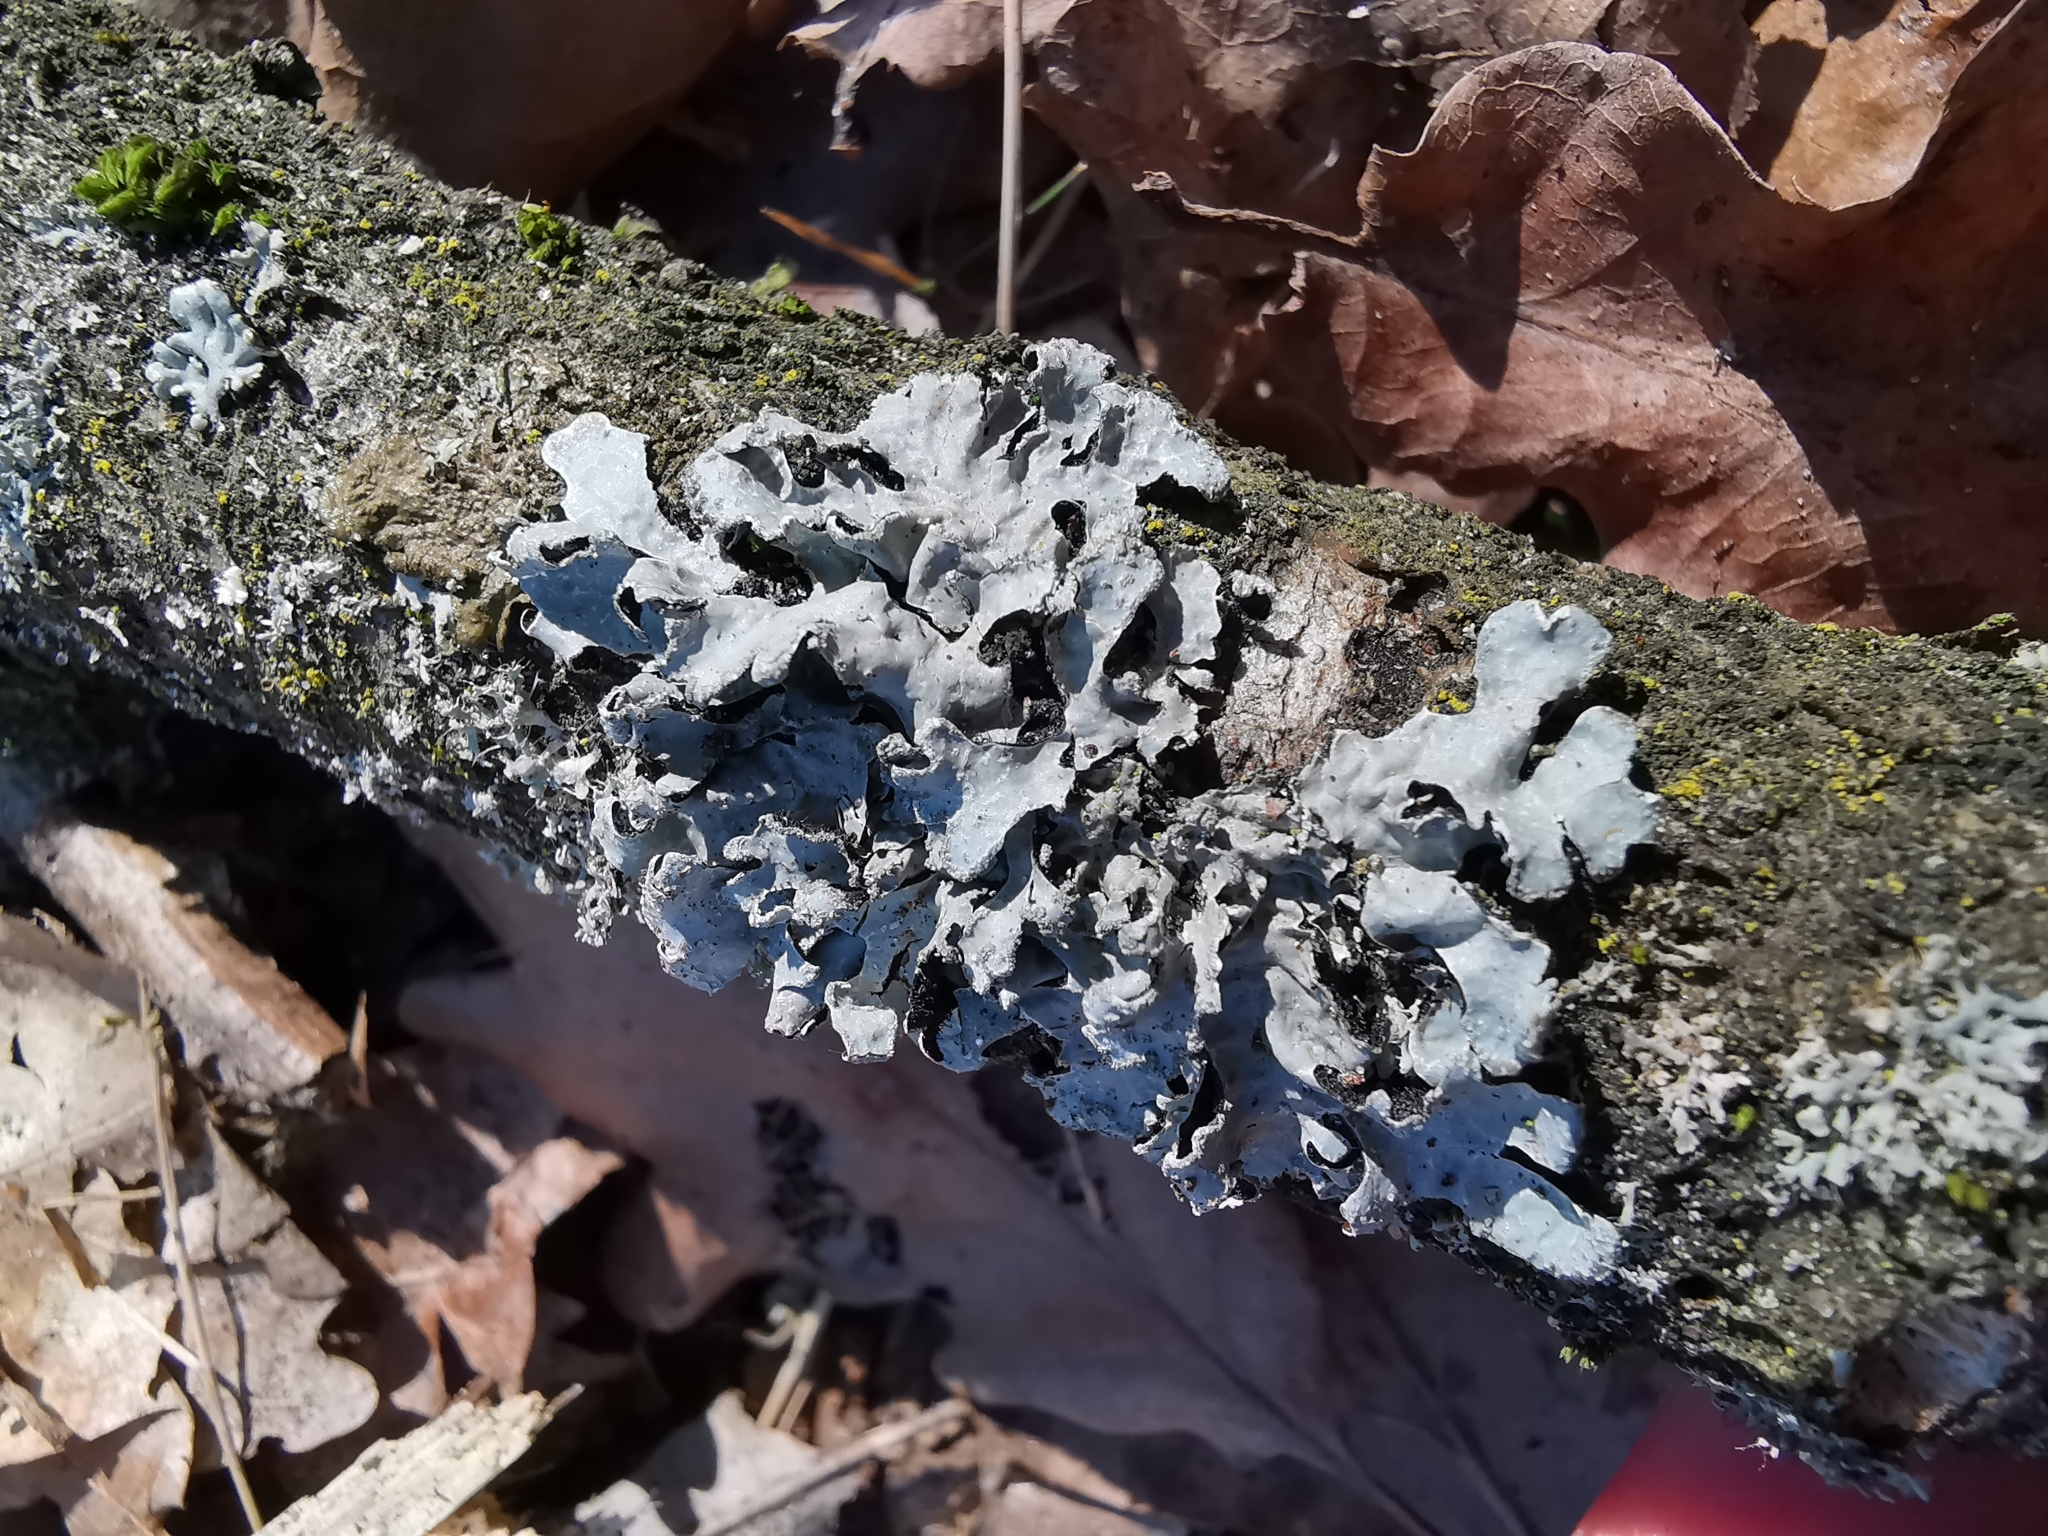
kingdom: Fungi
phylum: Ascomycota
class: Lecanoromycetes
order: Lecanorales
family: Parmeliaceae
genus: Parmelia
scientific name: Parmelia sulcata
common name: Netted shield lichen
